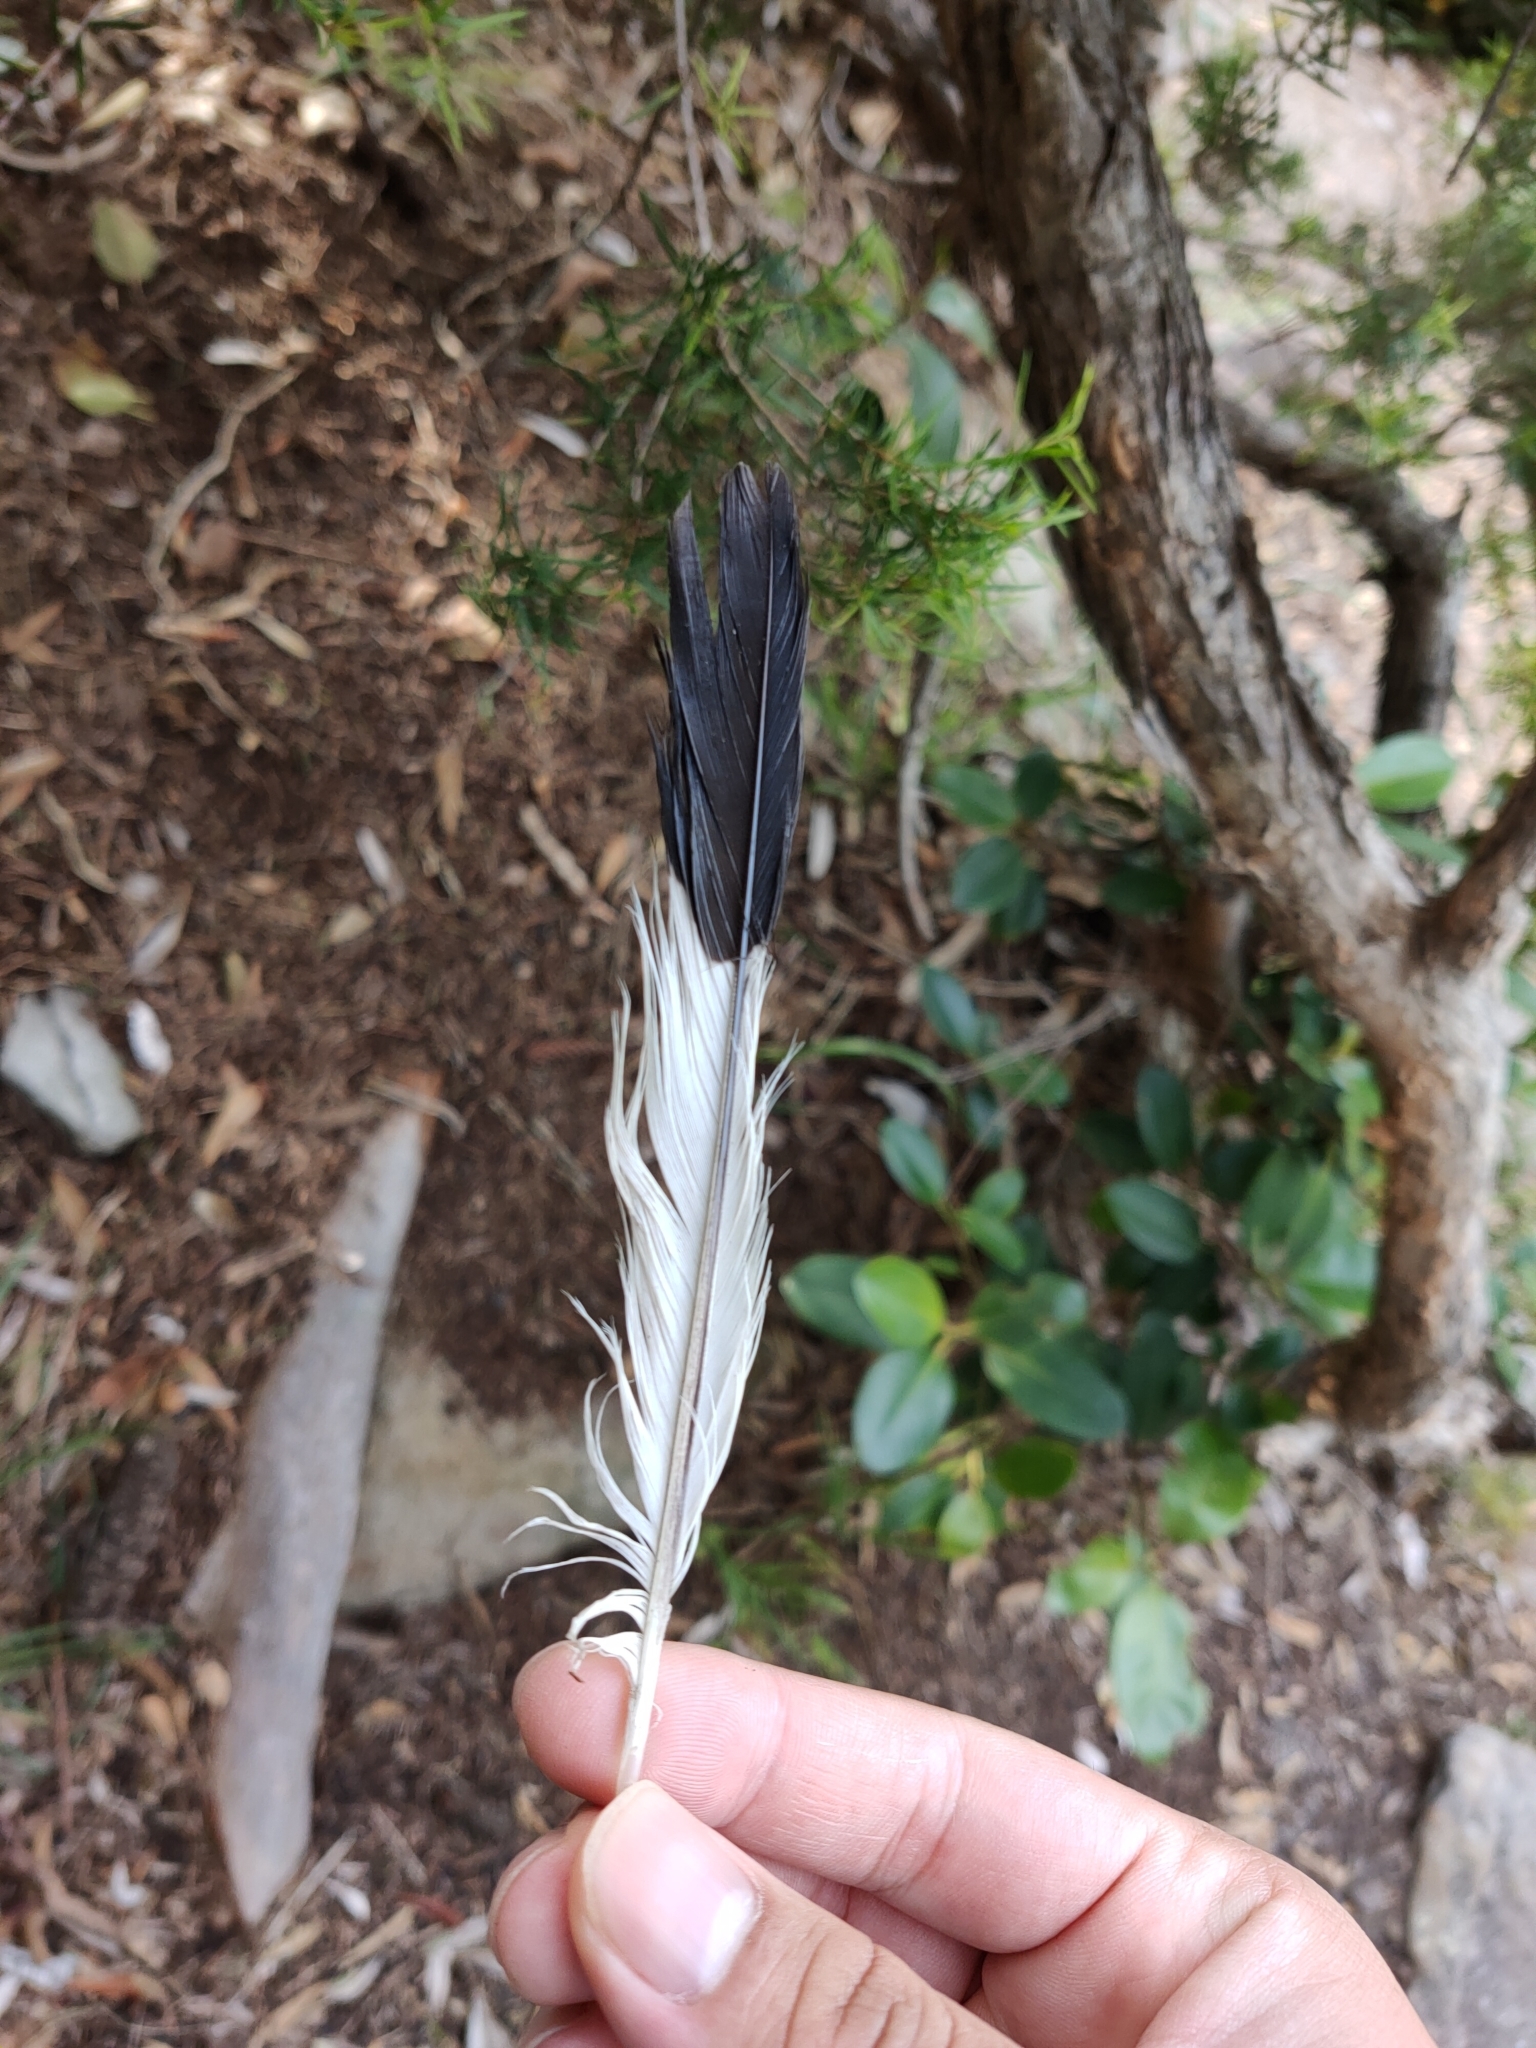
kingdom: Animalia
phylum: Chordata
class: Aves
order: Passeriformes
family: Cracticidae
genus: Gymnorhina
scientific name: Gymnorhina tibicen
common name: Australian magpie
